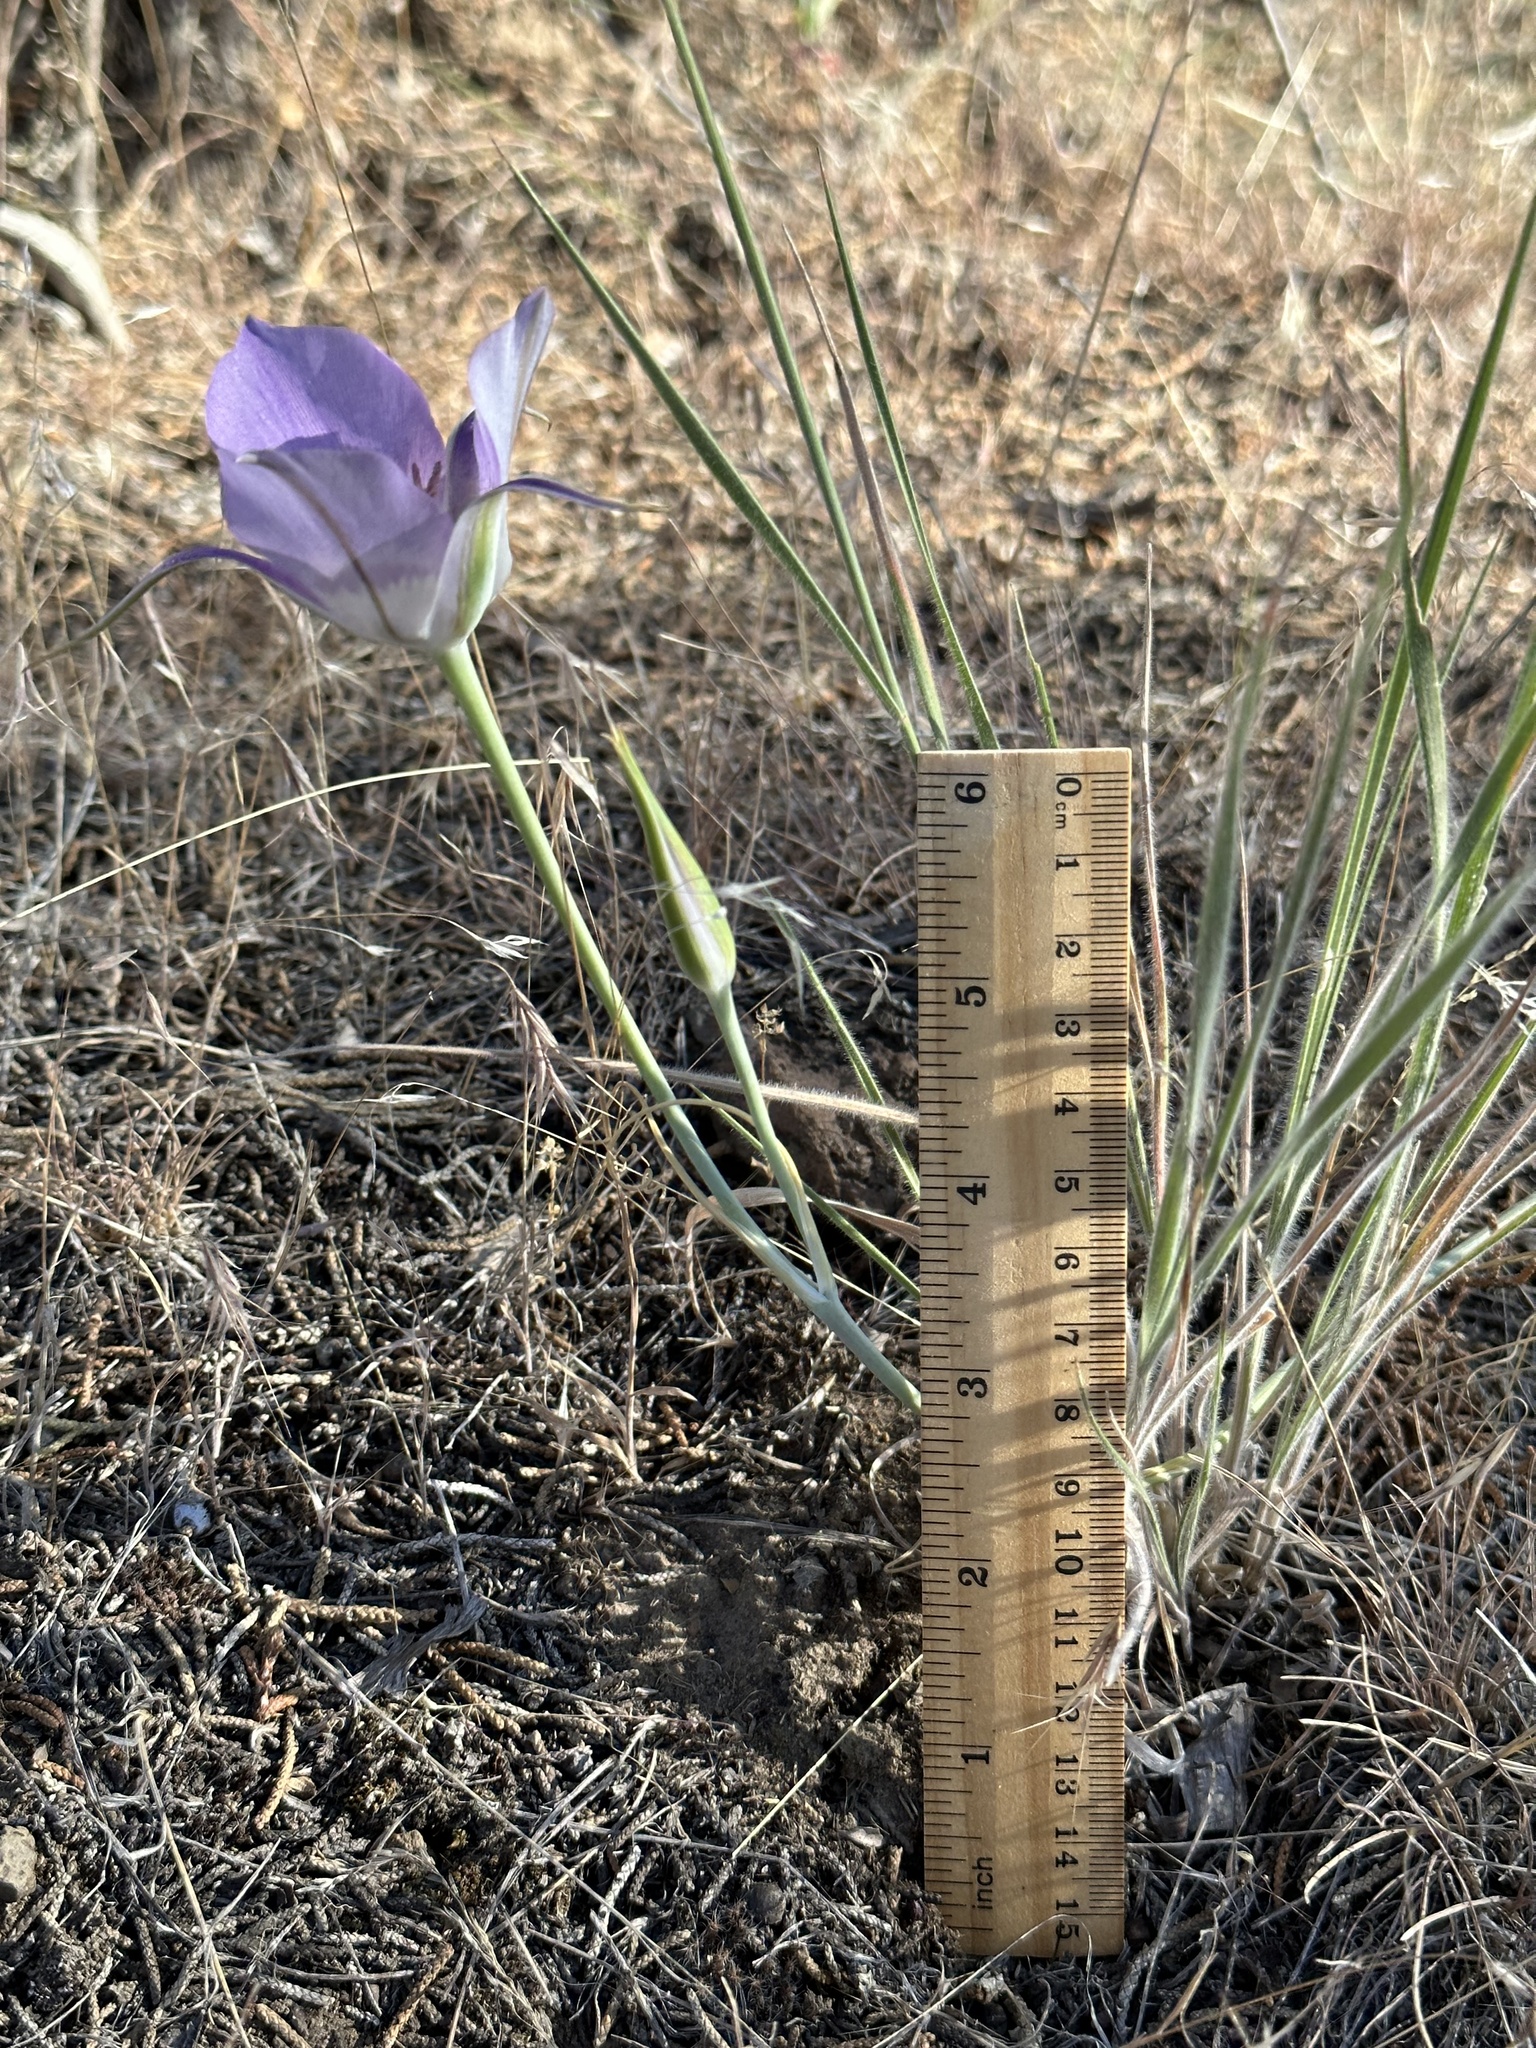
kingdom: Plantae
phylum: Tracheophyta
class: Liliopsida
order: Liliales
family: Liliaceae
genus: Calochortus
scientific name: Calochortus macrocarpus
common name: Green-band mariposa lily
